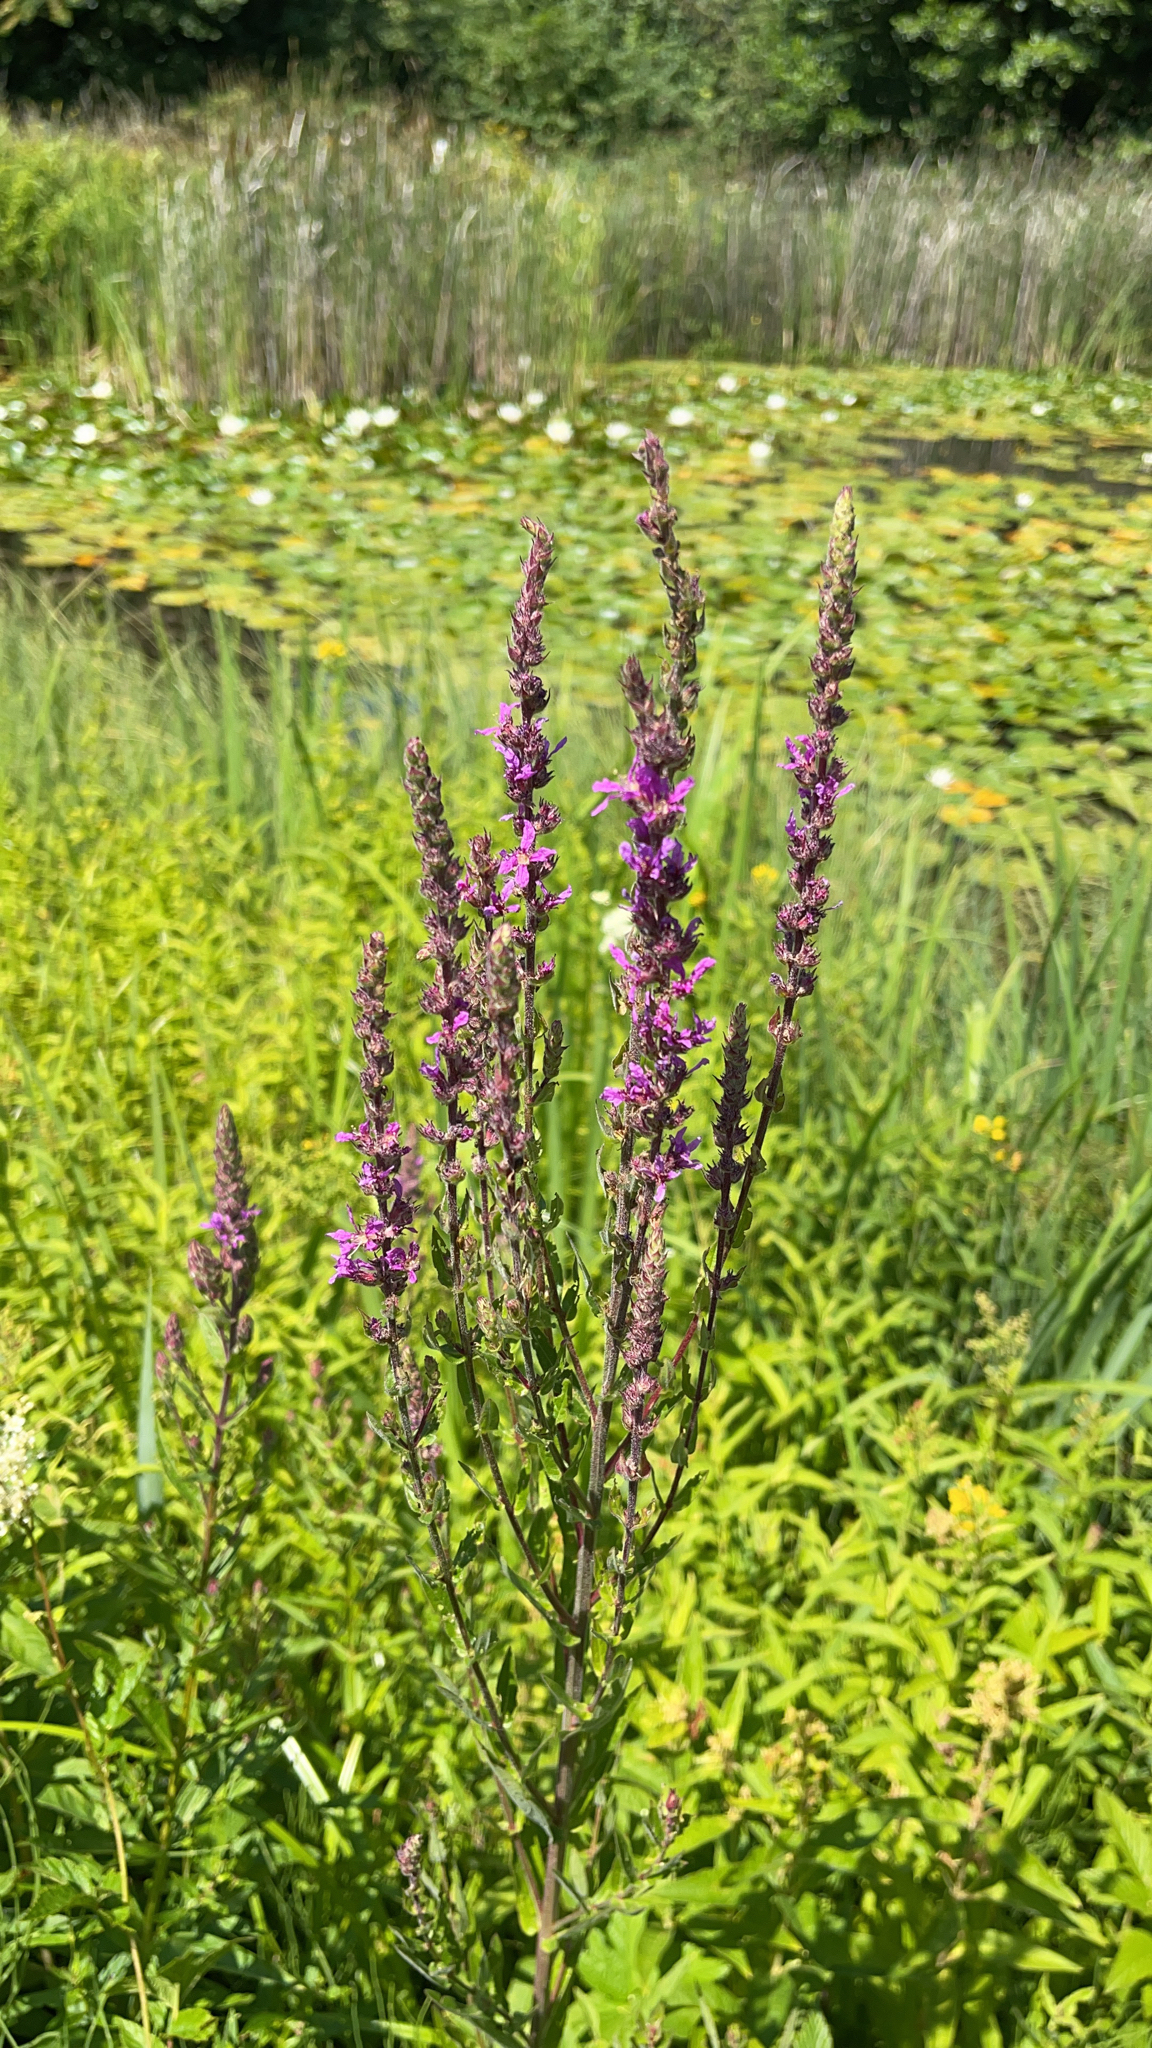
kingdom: Plantae
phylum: Tracheophyta
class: Magnoliopsida
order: Myrtales
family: Lythraceae
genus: Lythrum
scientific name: Lythrum salicaria
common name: Purple loosestrife
